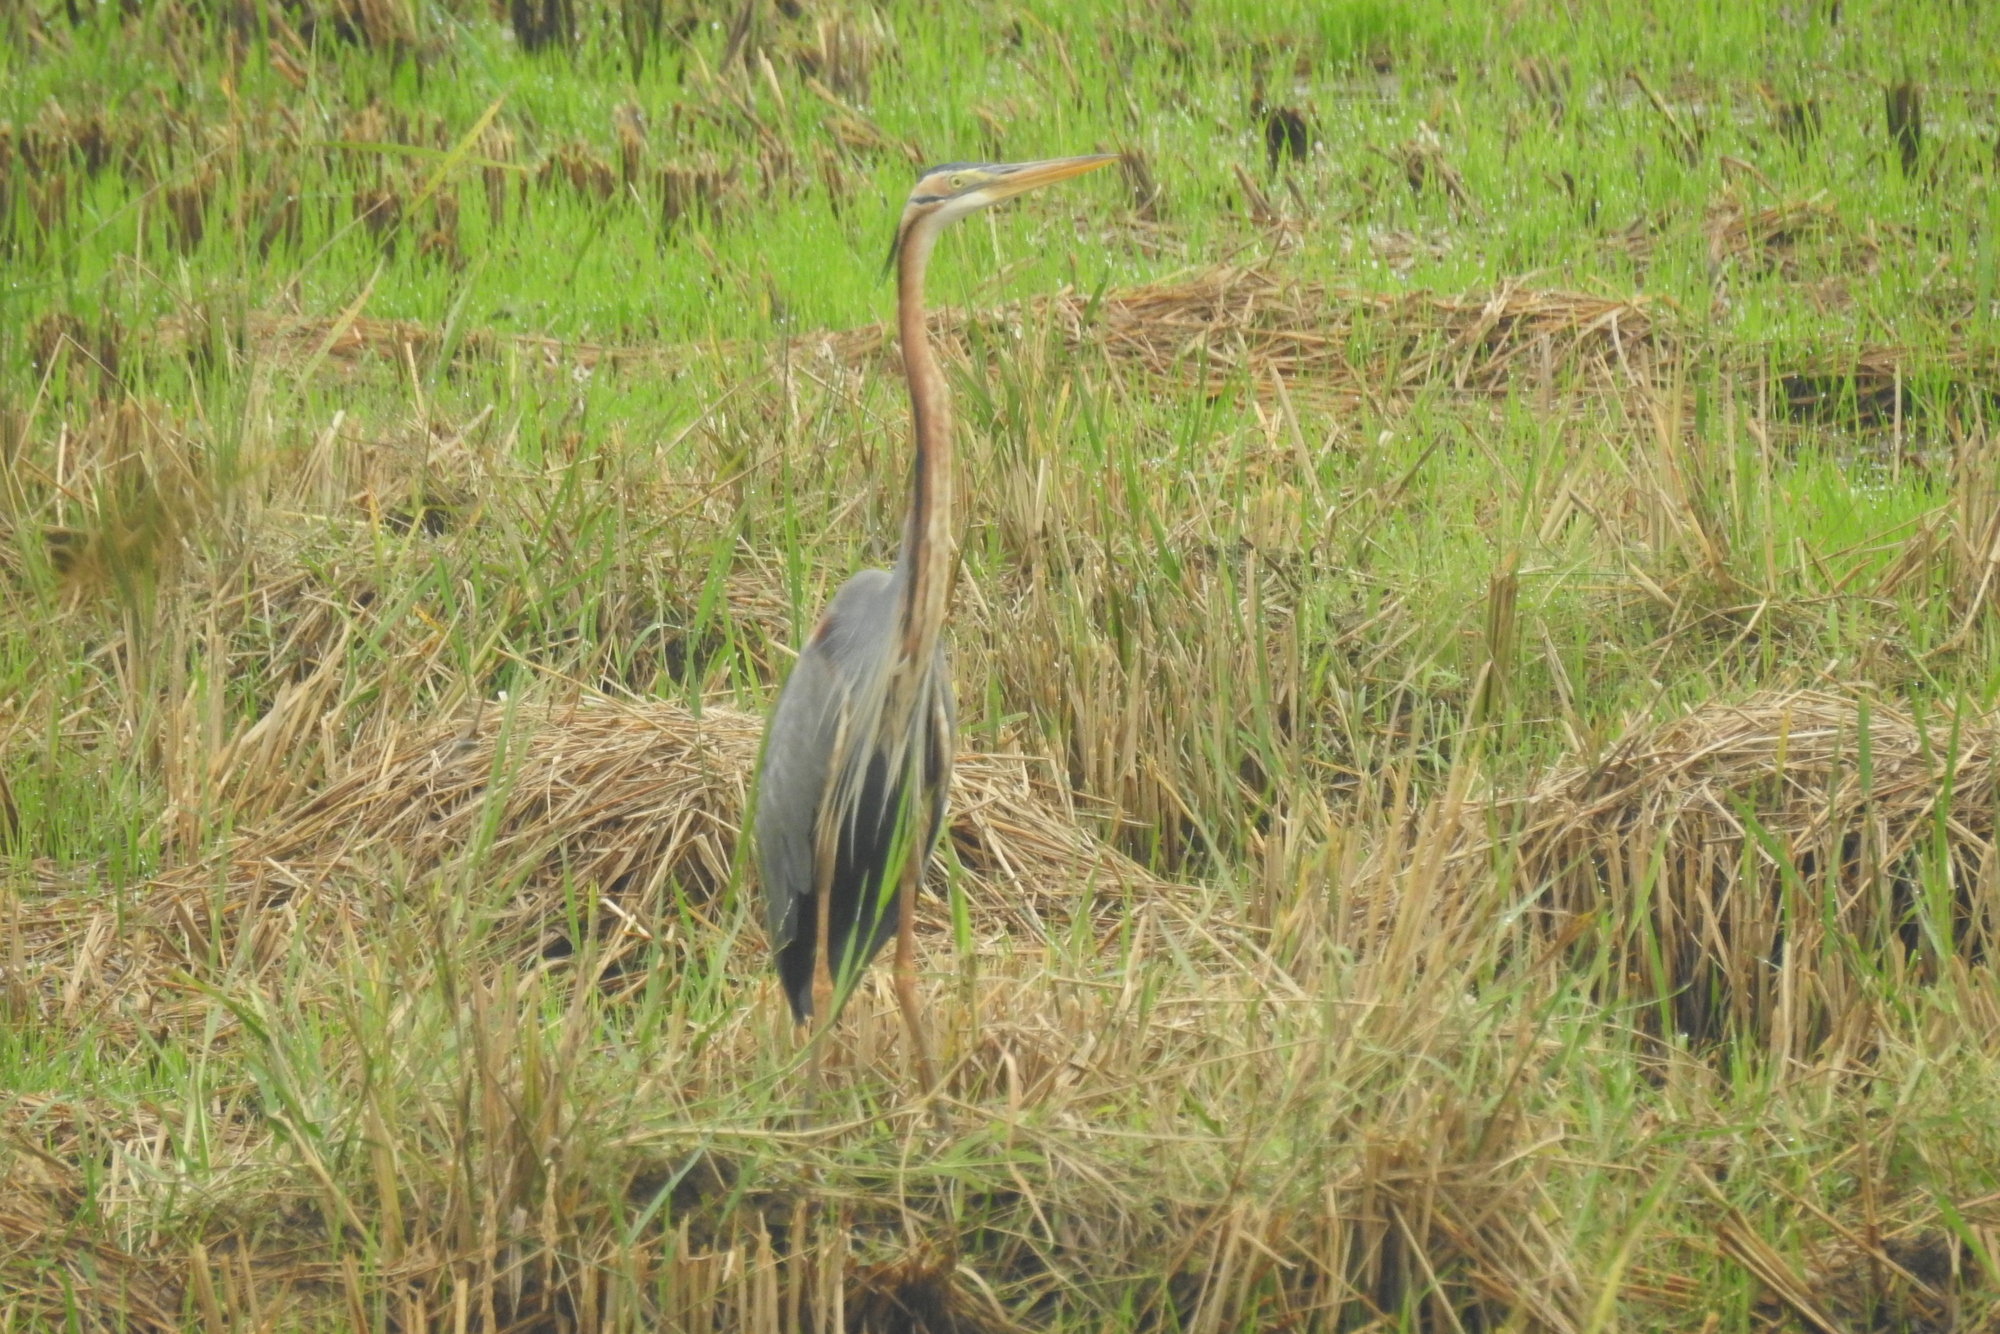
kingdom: Animalia
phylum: Chordata
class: Aves
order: Pelecaniformes
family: Ardeidae
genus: Ardea
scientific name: Ardea purpurea
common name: Purple heron
